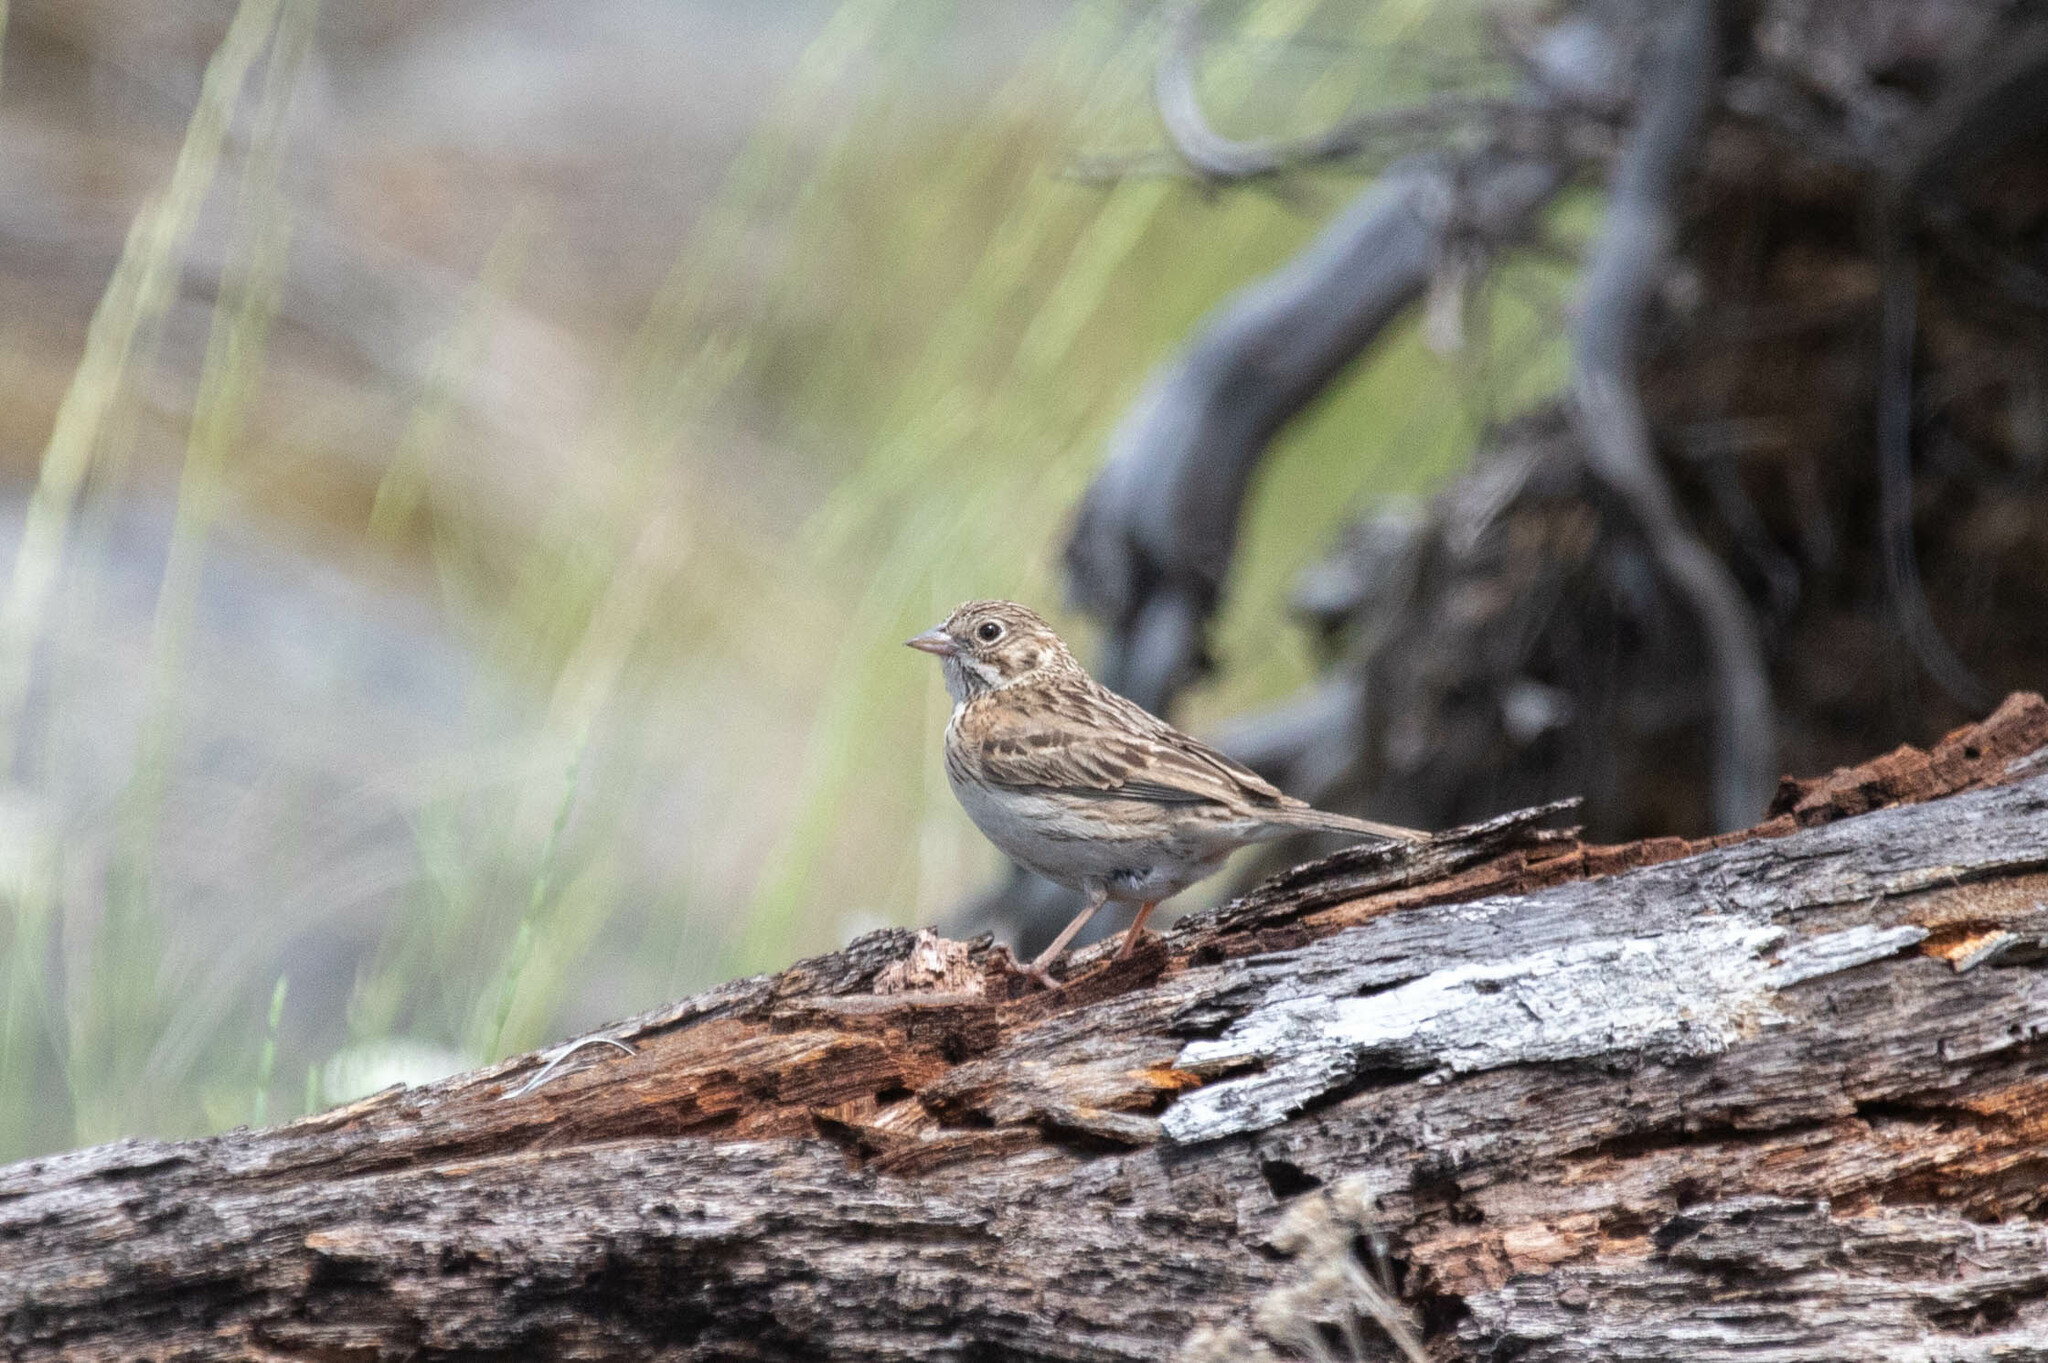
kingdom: Animalia
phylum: Chordata
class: Aves
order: Passeriformes
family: Passerellidae
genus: Pooecetes
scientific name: Pooecetes gramineus
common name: Vesper sparrow
